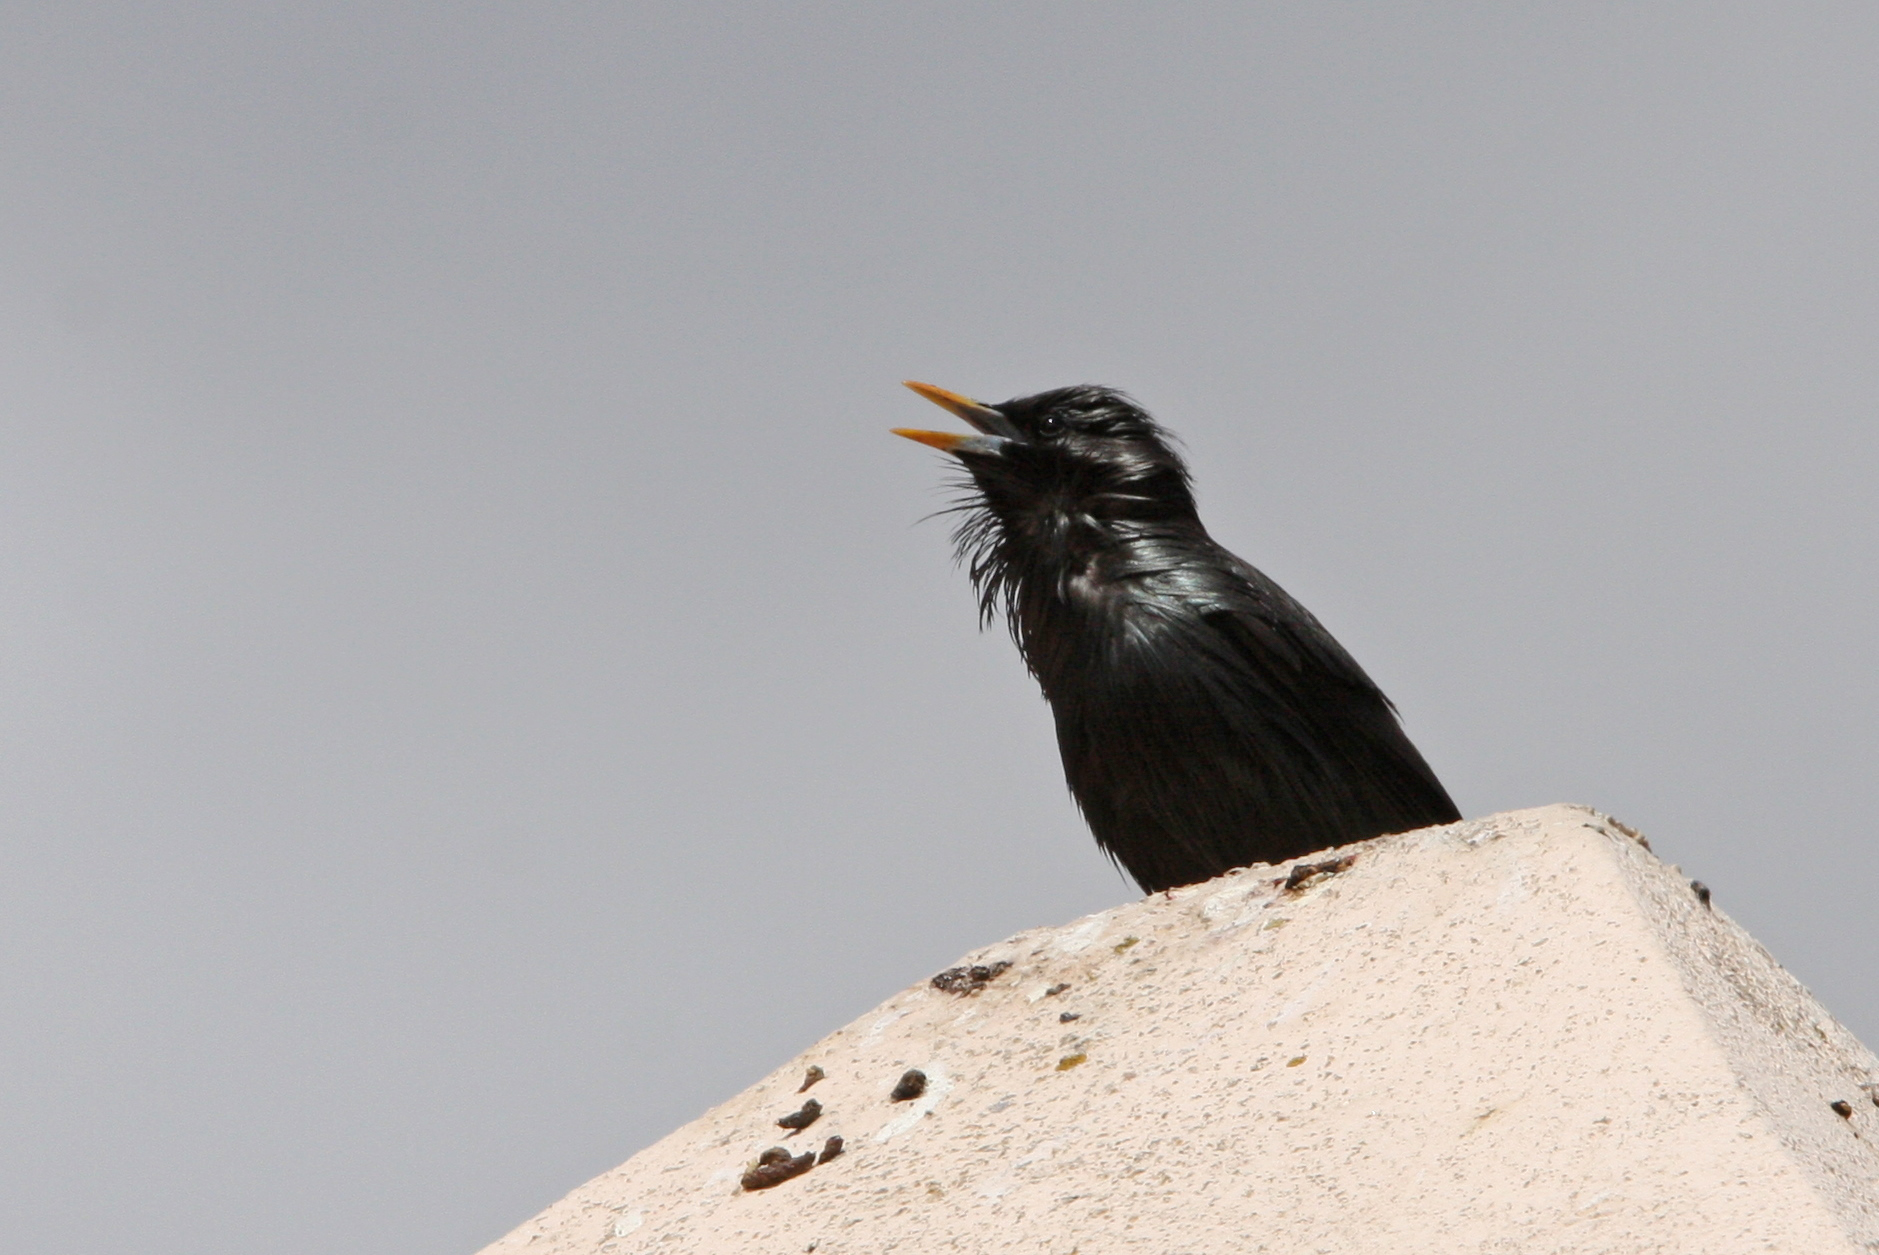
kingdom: Animalia
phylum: Chordata
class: Aves
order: Passeriformes
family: Sturnidae
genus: Sturnus
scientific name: Sturnus unicolor
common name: Spotless starling
